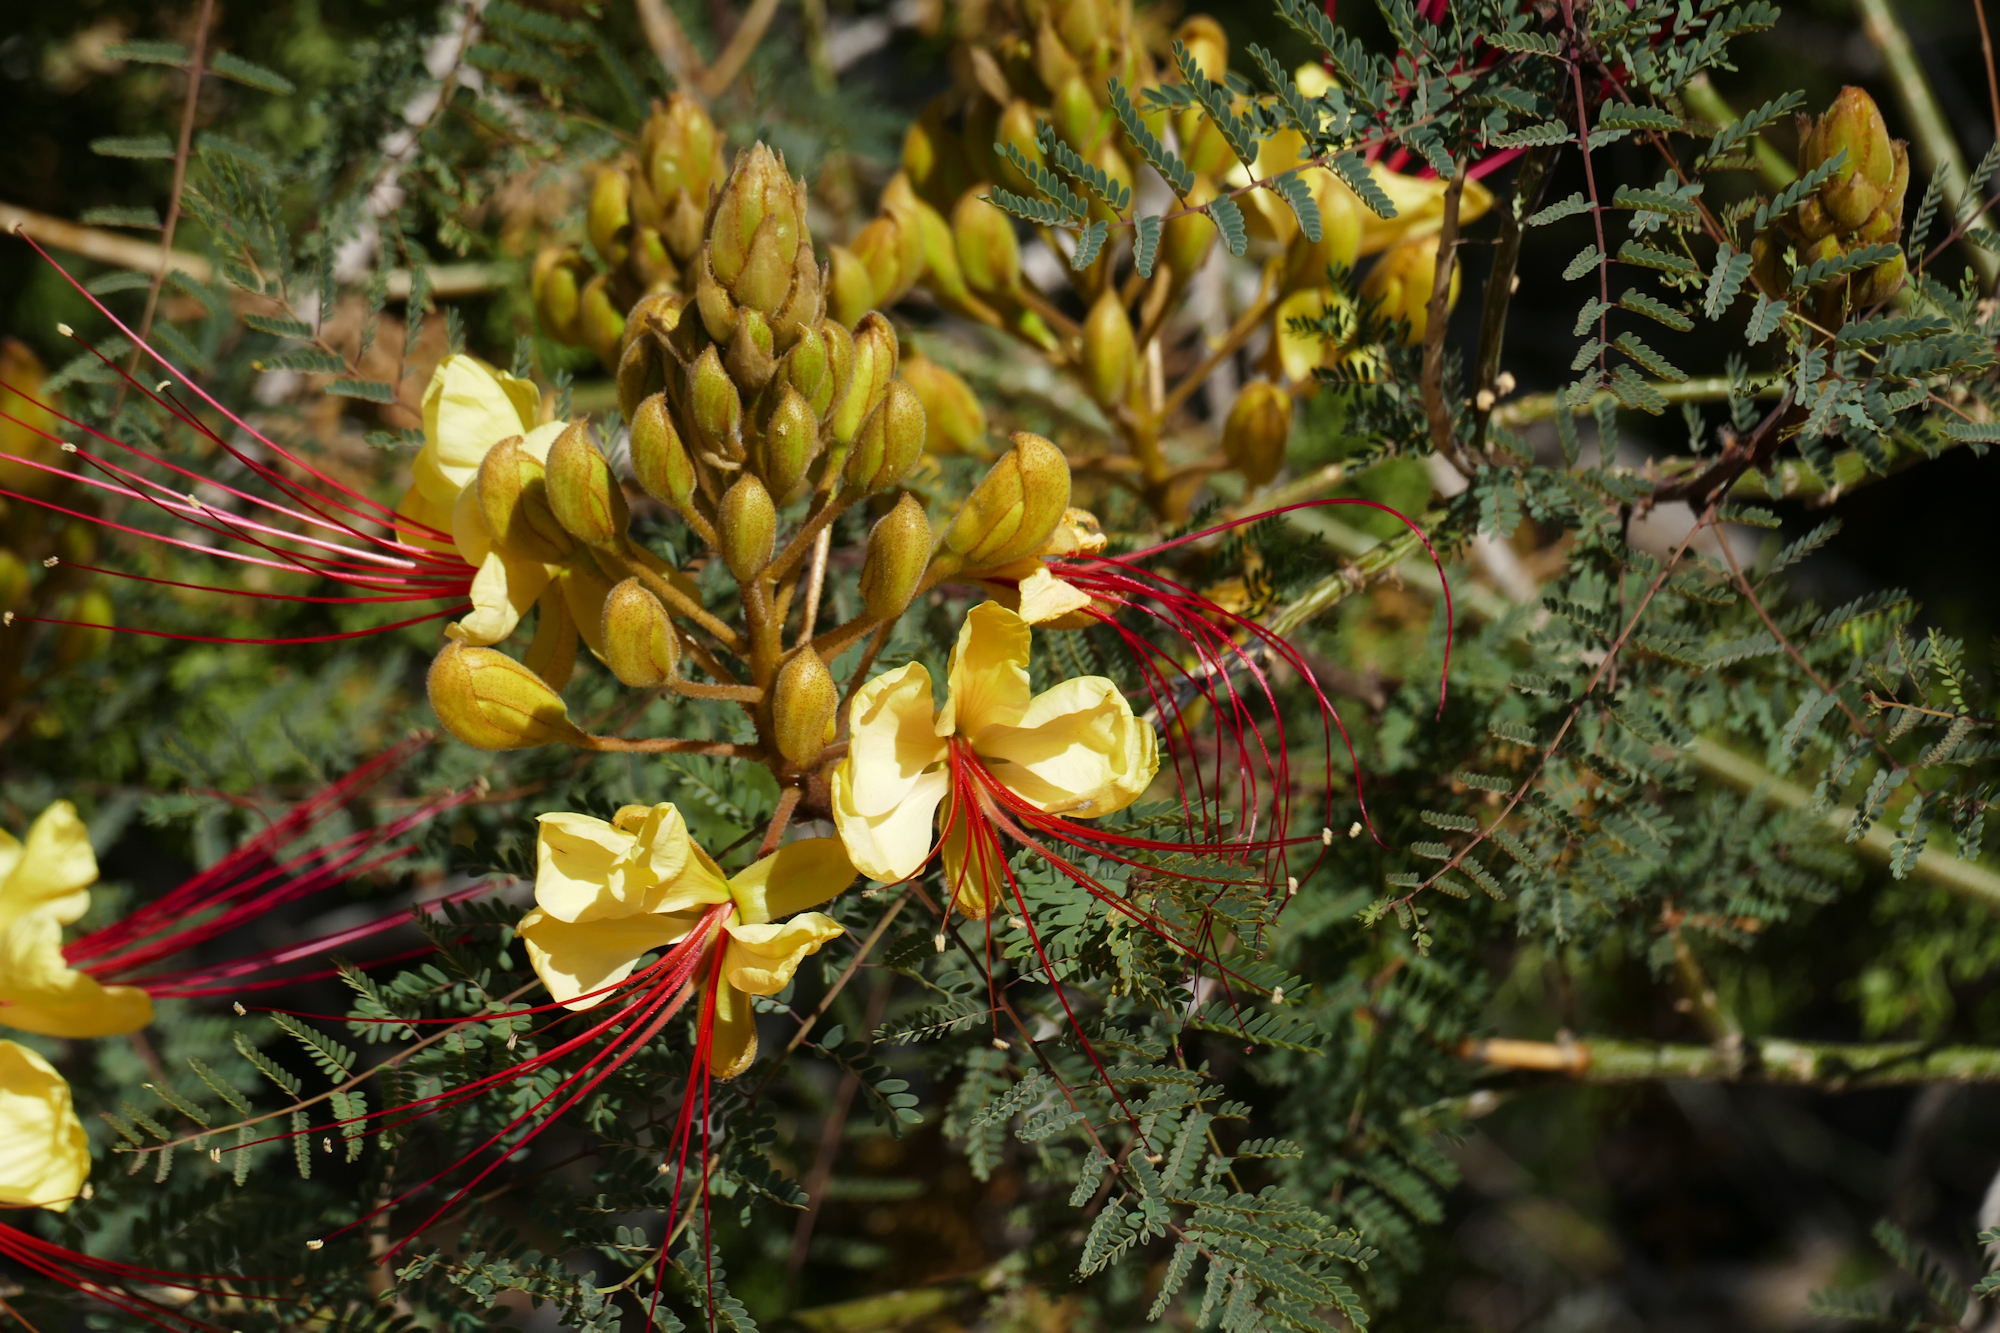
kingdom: Plantae
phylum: Tracheophyta
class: Magnoliopsida
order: Fabales
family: Fabaceae
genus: Erythrostemon
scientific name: Erythrostemon gilliesii
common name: Bird-of-paradise shrub
